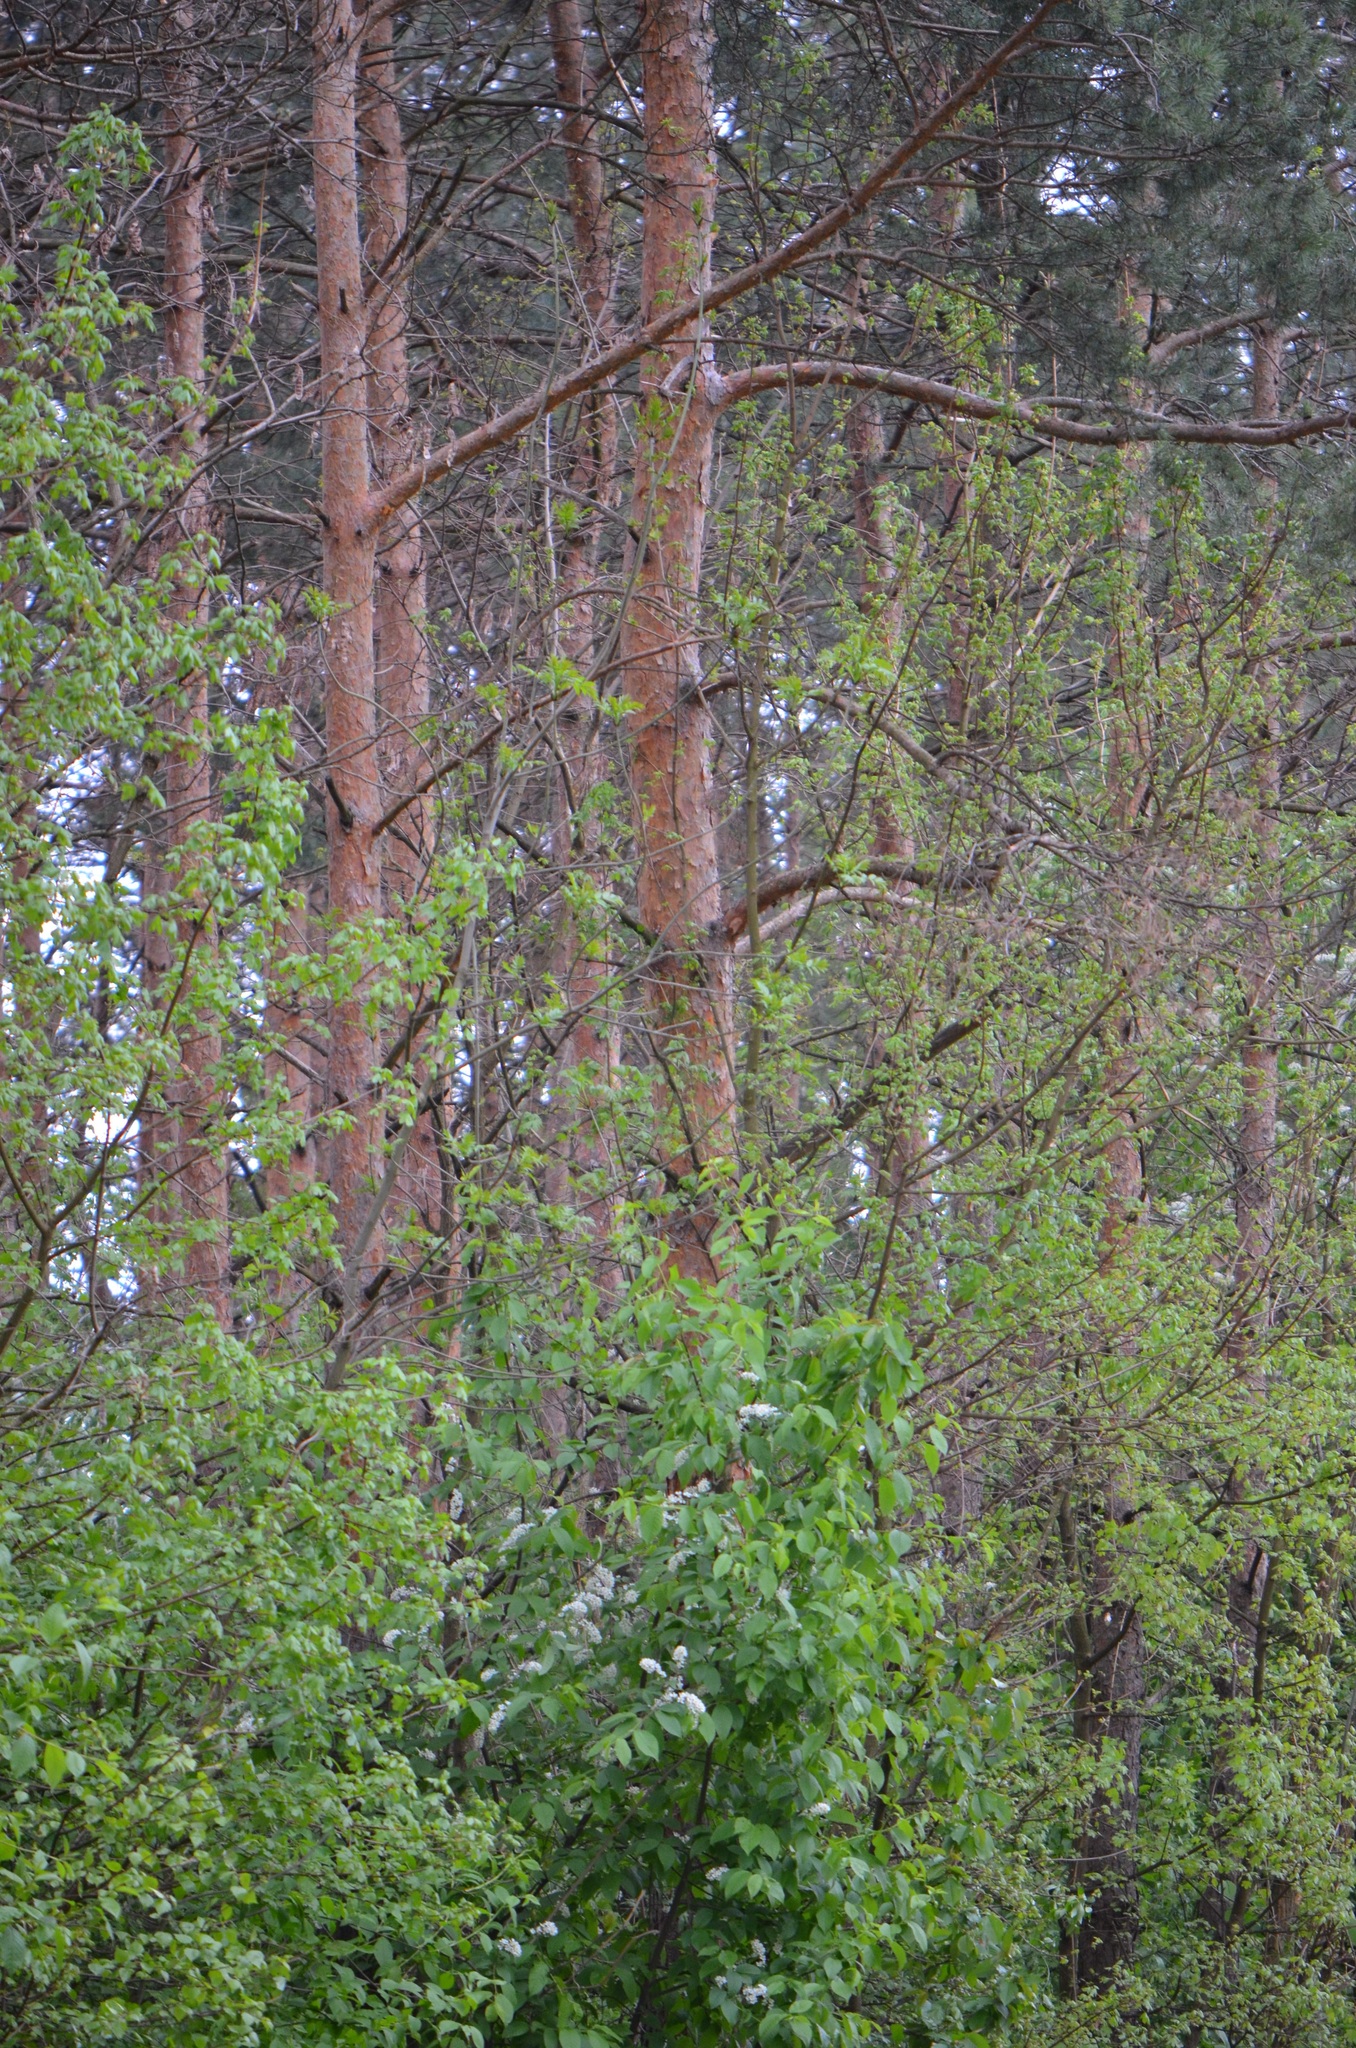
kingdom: Plantae
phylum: Tracheophyta
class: Pinopsida
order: Pinales
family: Pinaceae
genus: Pinus
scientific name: Pinus sylvestris
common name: Scots pine
